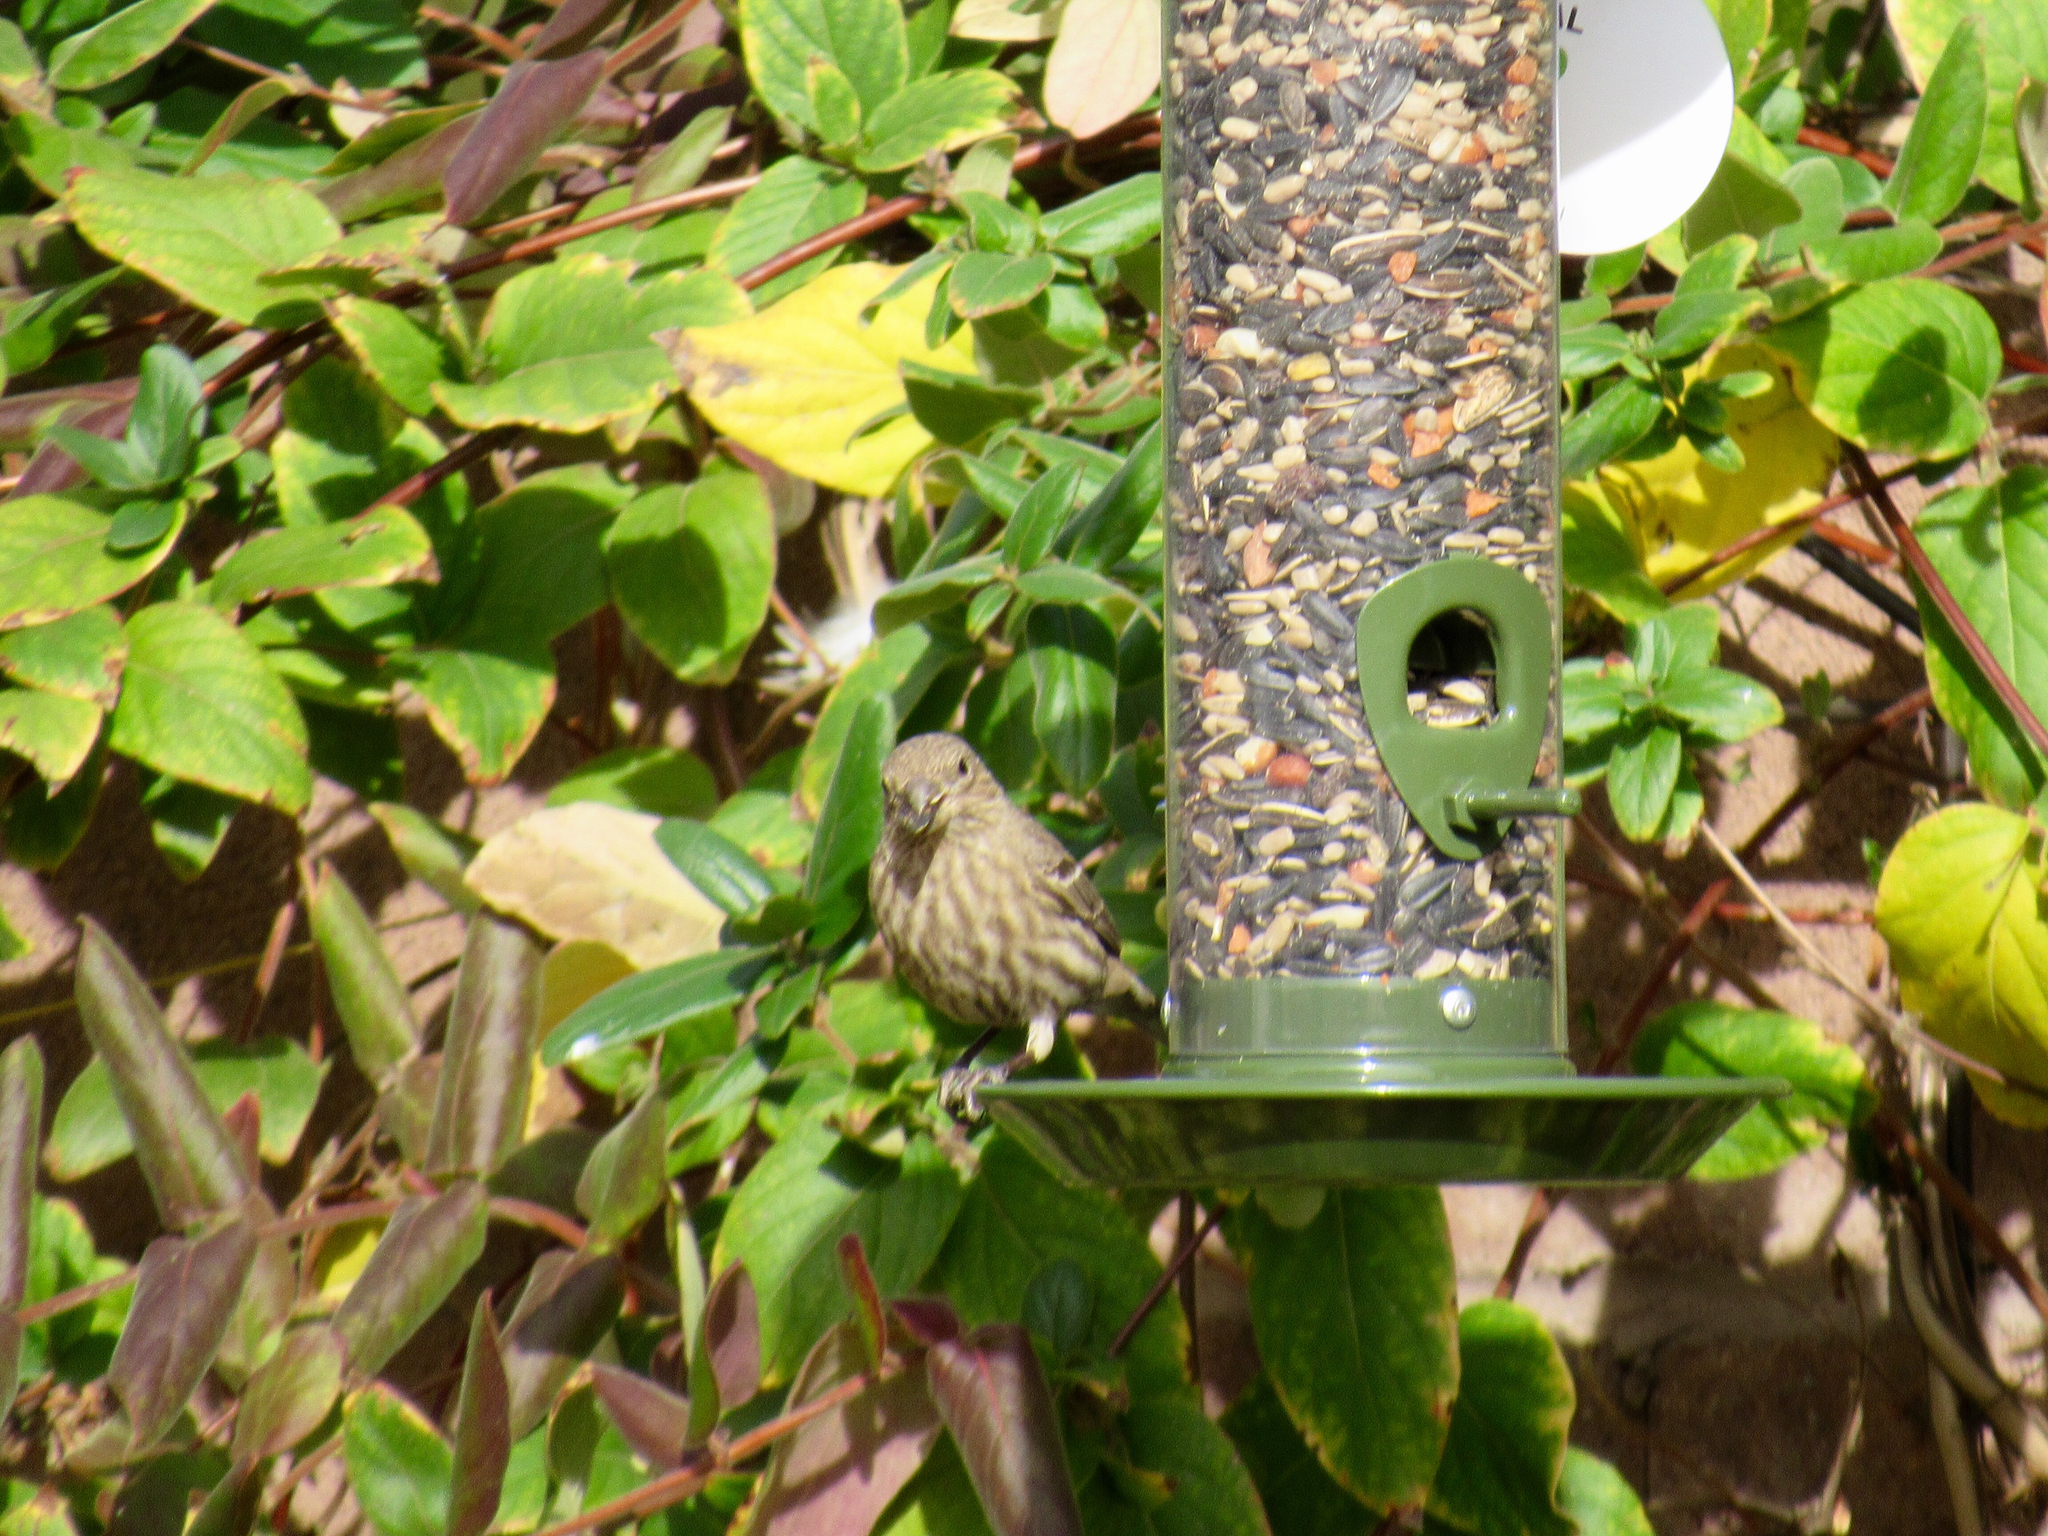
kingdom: Animalia
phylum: Chordata
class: Aves
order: Passeriformes
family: Fringillidae
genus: Haemorhous
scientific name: Haemorhous mexicanus
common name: House finch
